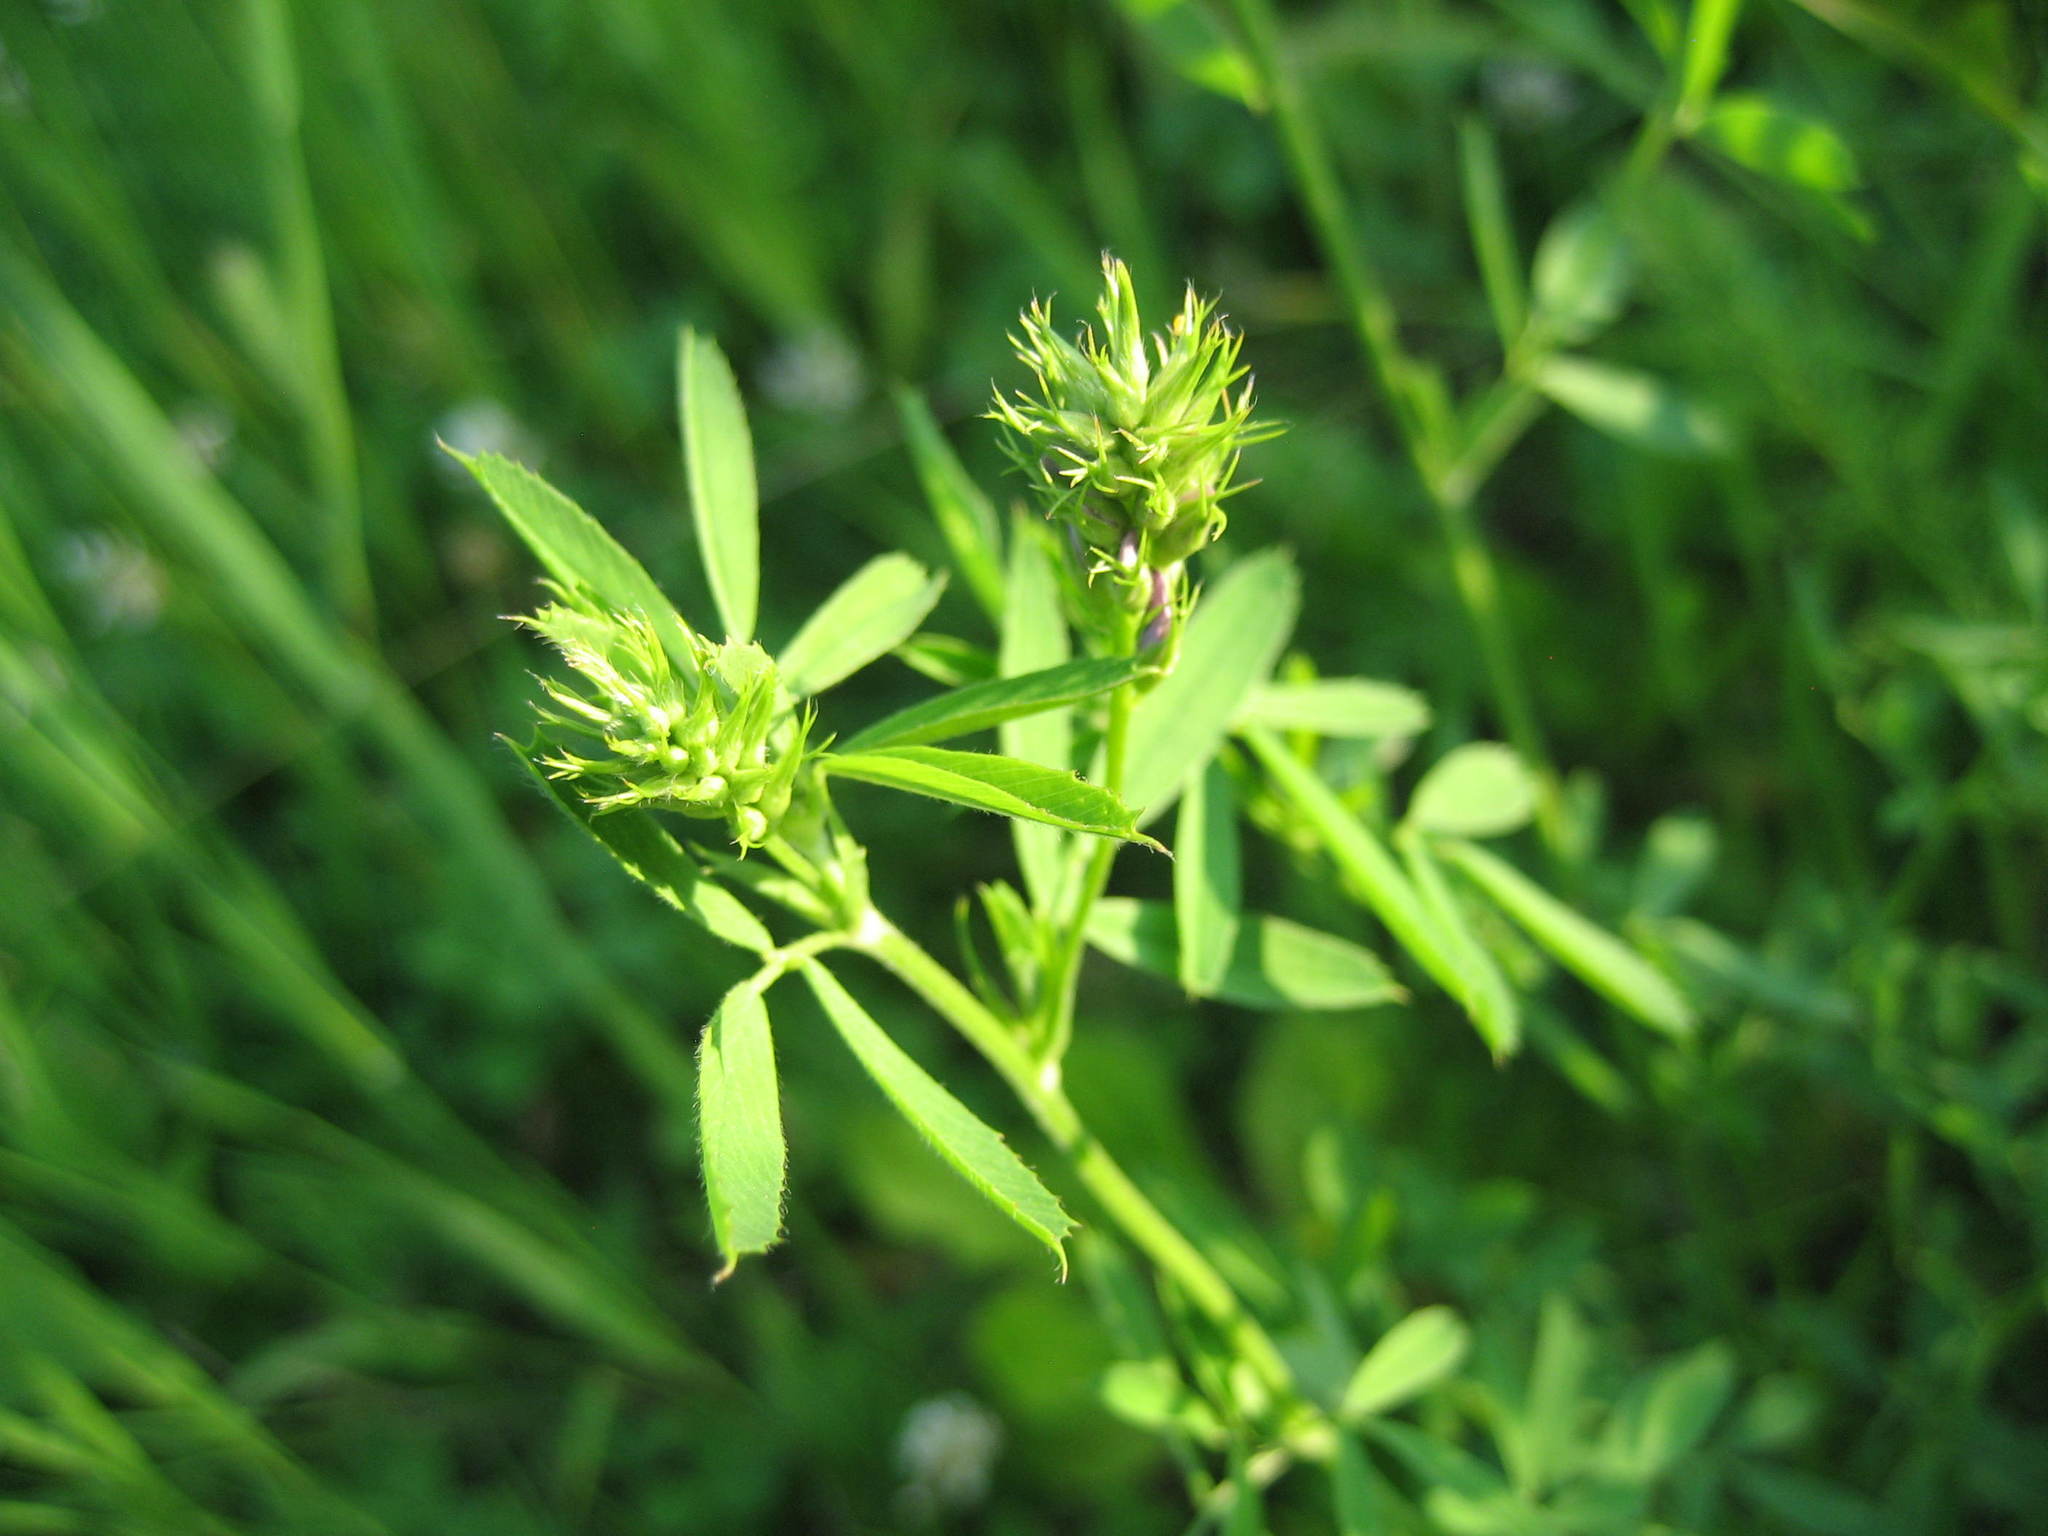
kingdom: Plantae
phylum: Tracheophyta
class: Magnoliopsida
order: Fabales
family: Fabaceae
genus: Medicago
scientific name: Medicago sativa
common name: Alfalfa
